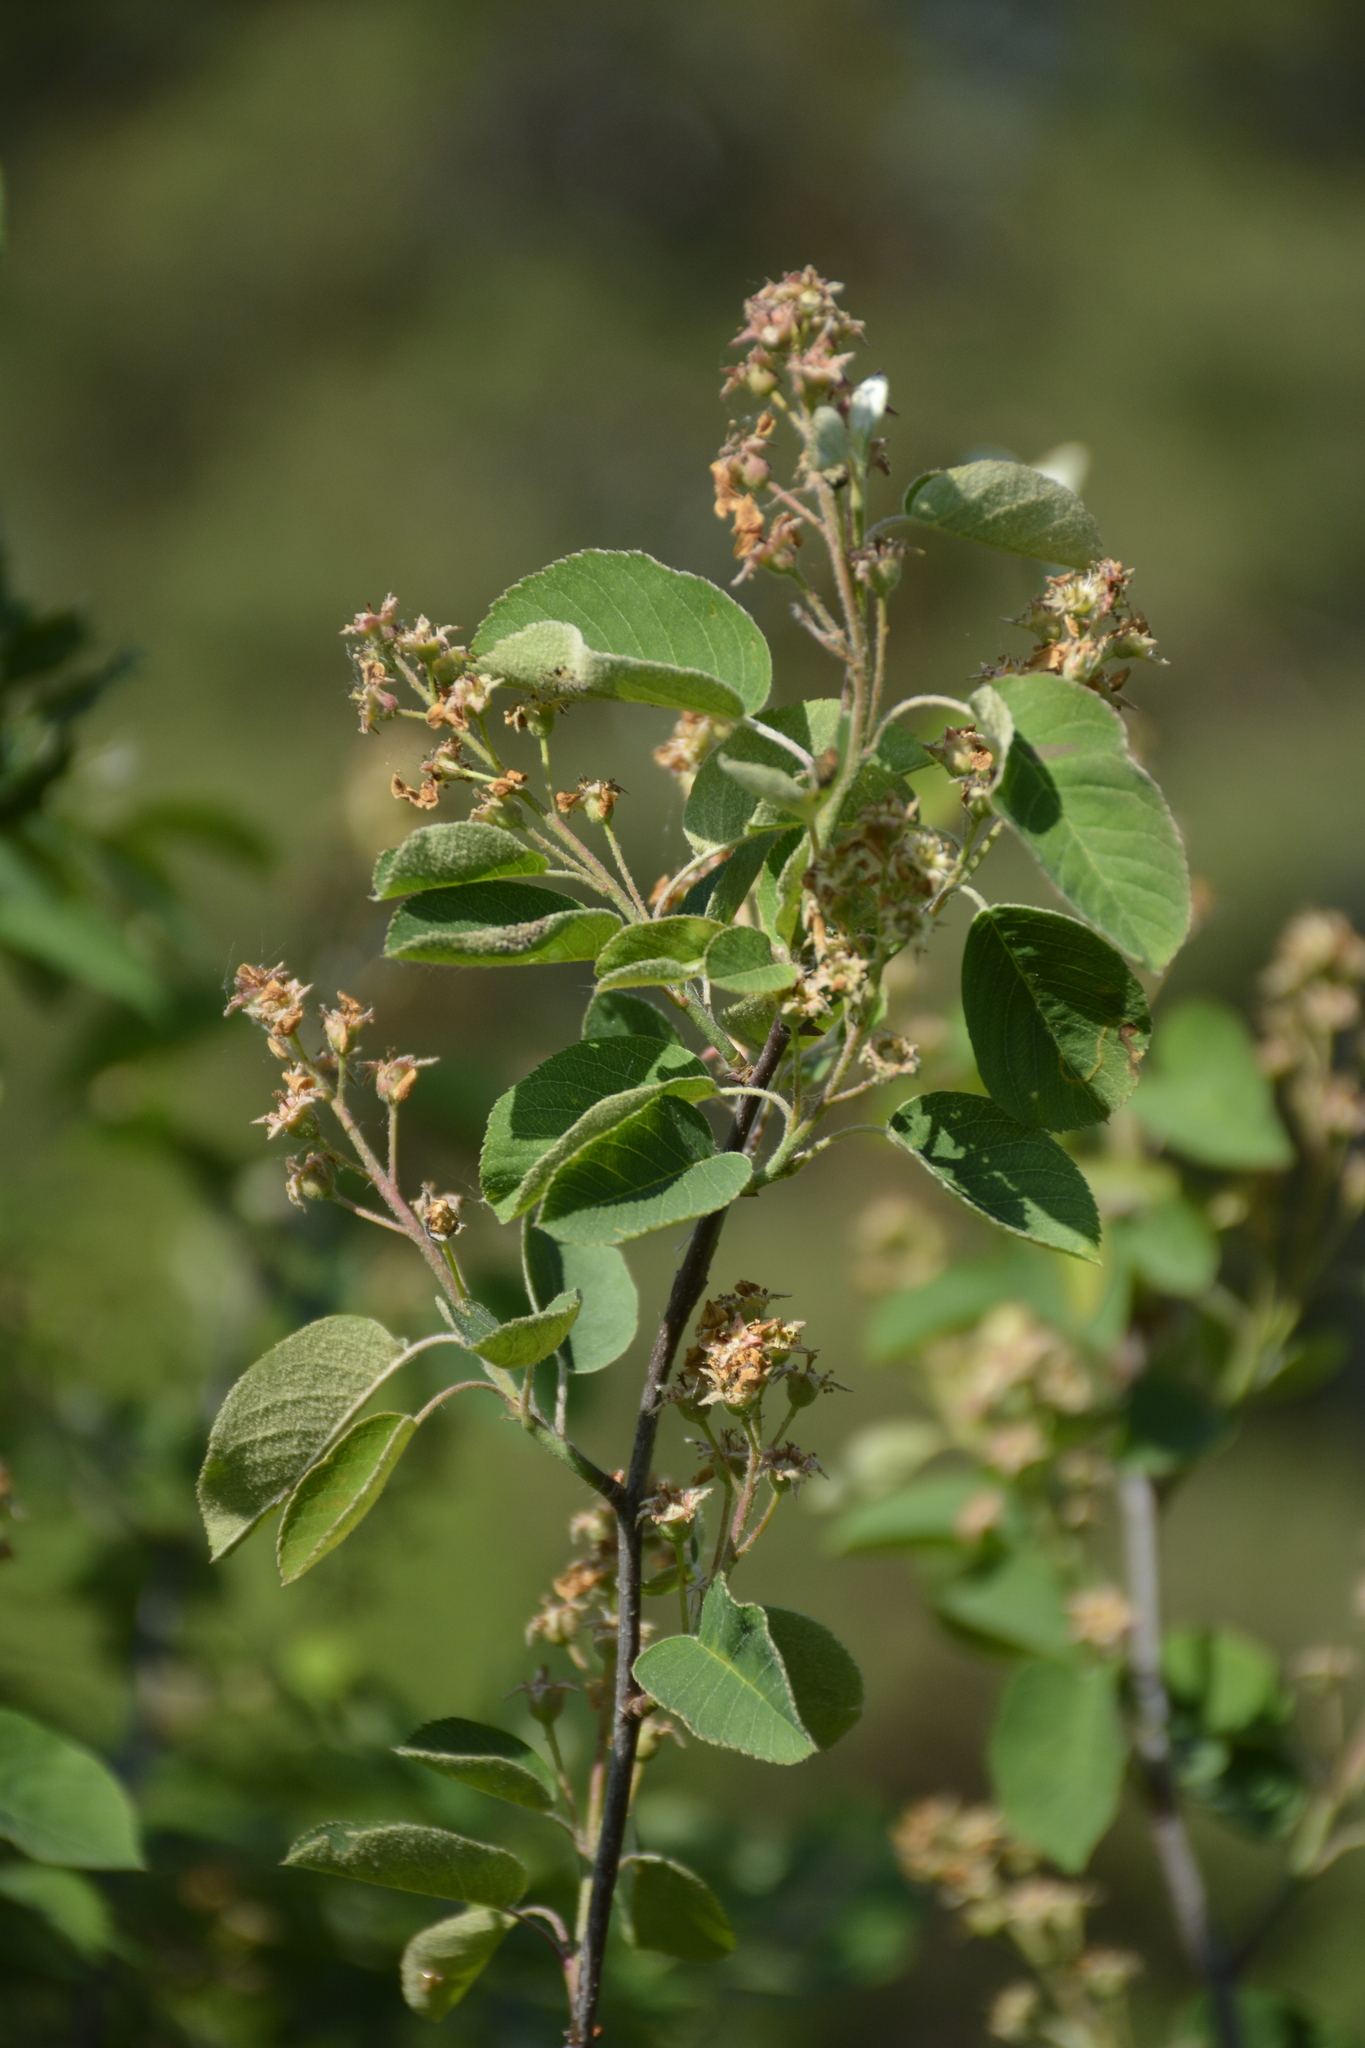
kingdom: Plantae
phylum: Tracheophyta
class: Magnoliopsida
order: Rosales
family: Rosaceae
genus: Amelanchier
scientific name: Amelanchier
